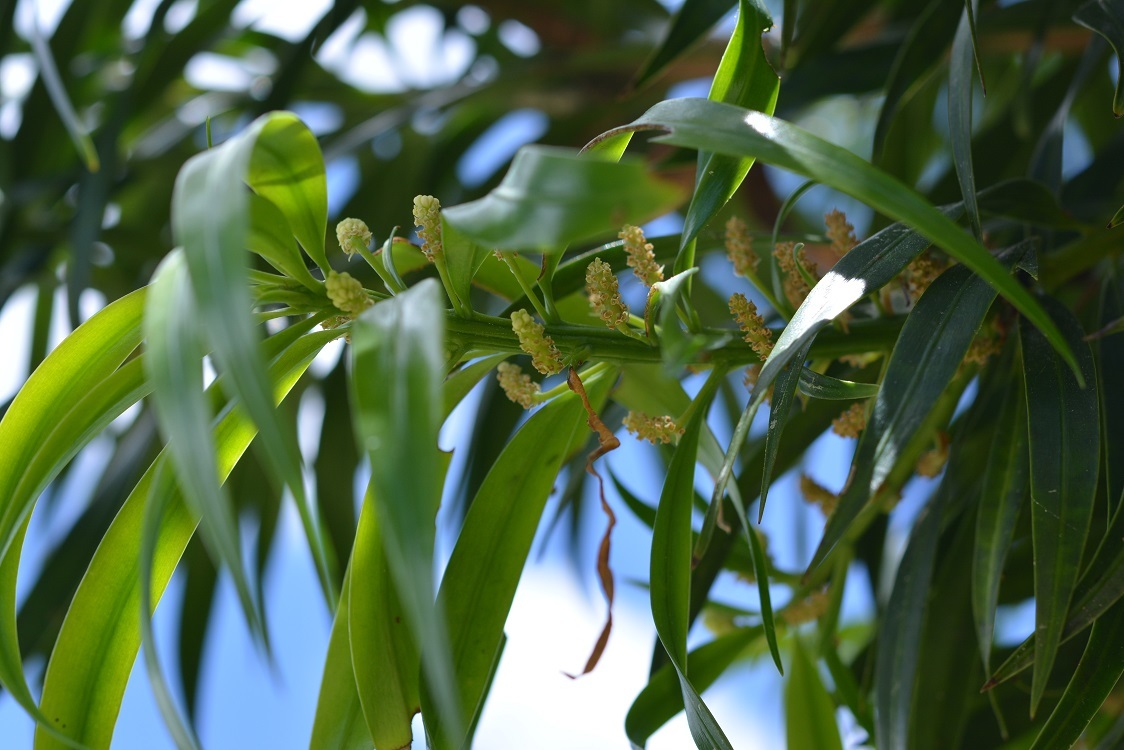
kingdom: Plantae
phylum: Tracheophyta
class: Pinopsida
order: Pinales
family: Podocarpaceae
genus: Podocarpus
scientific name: Podocarpus matudae
